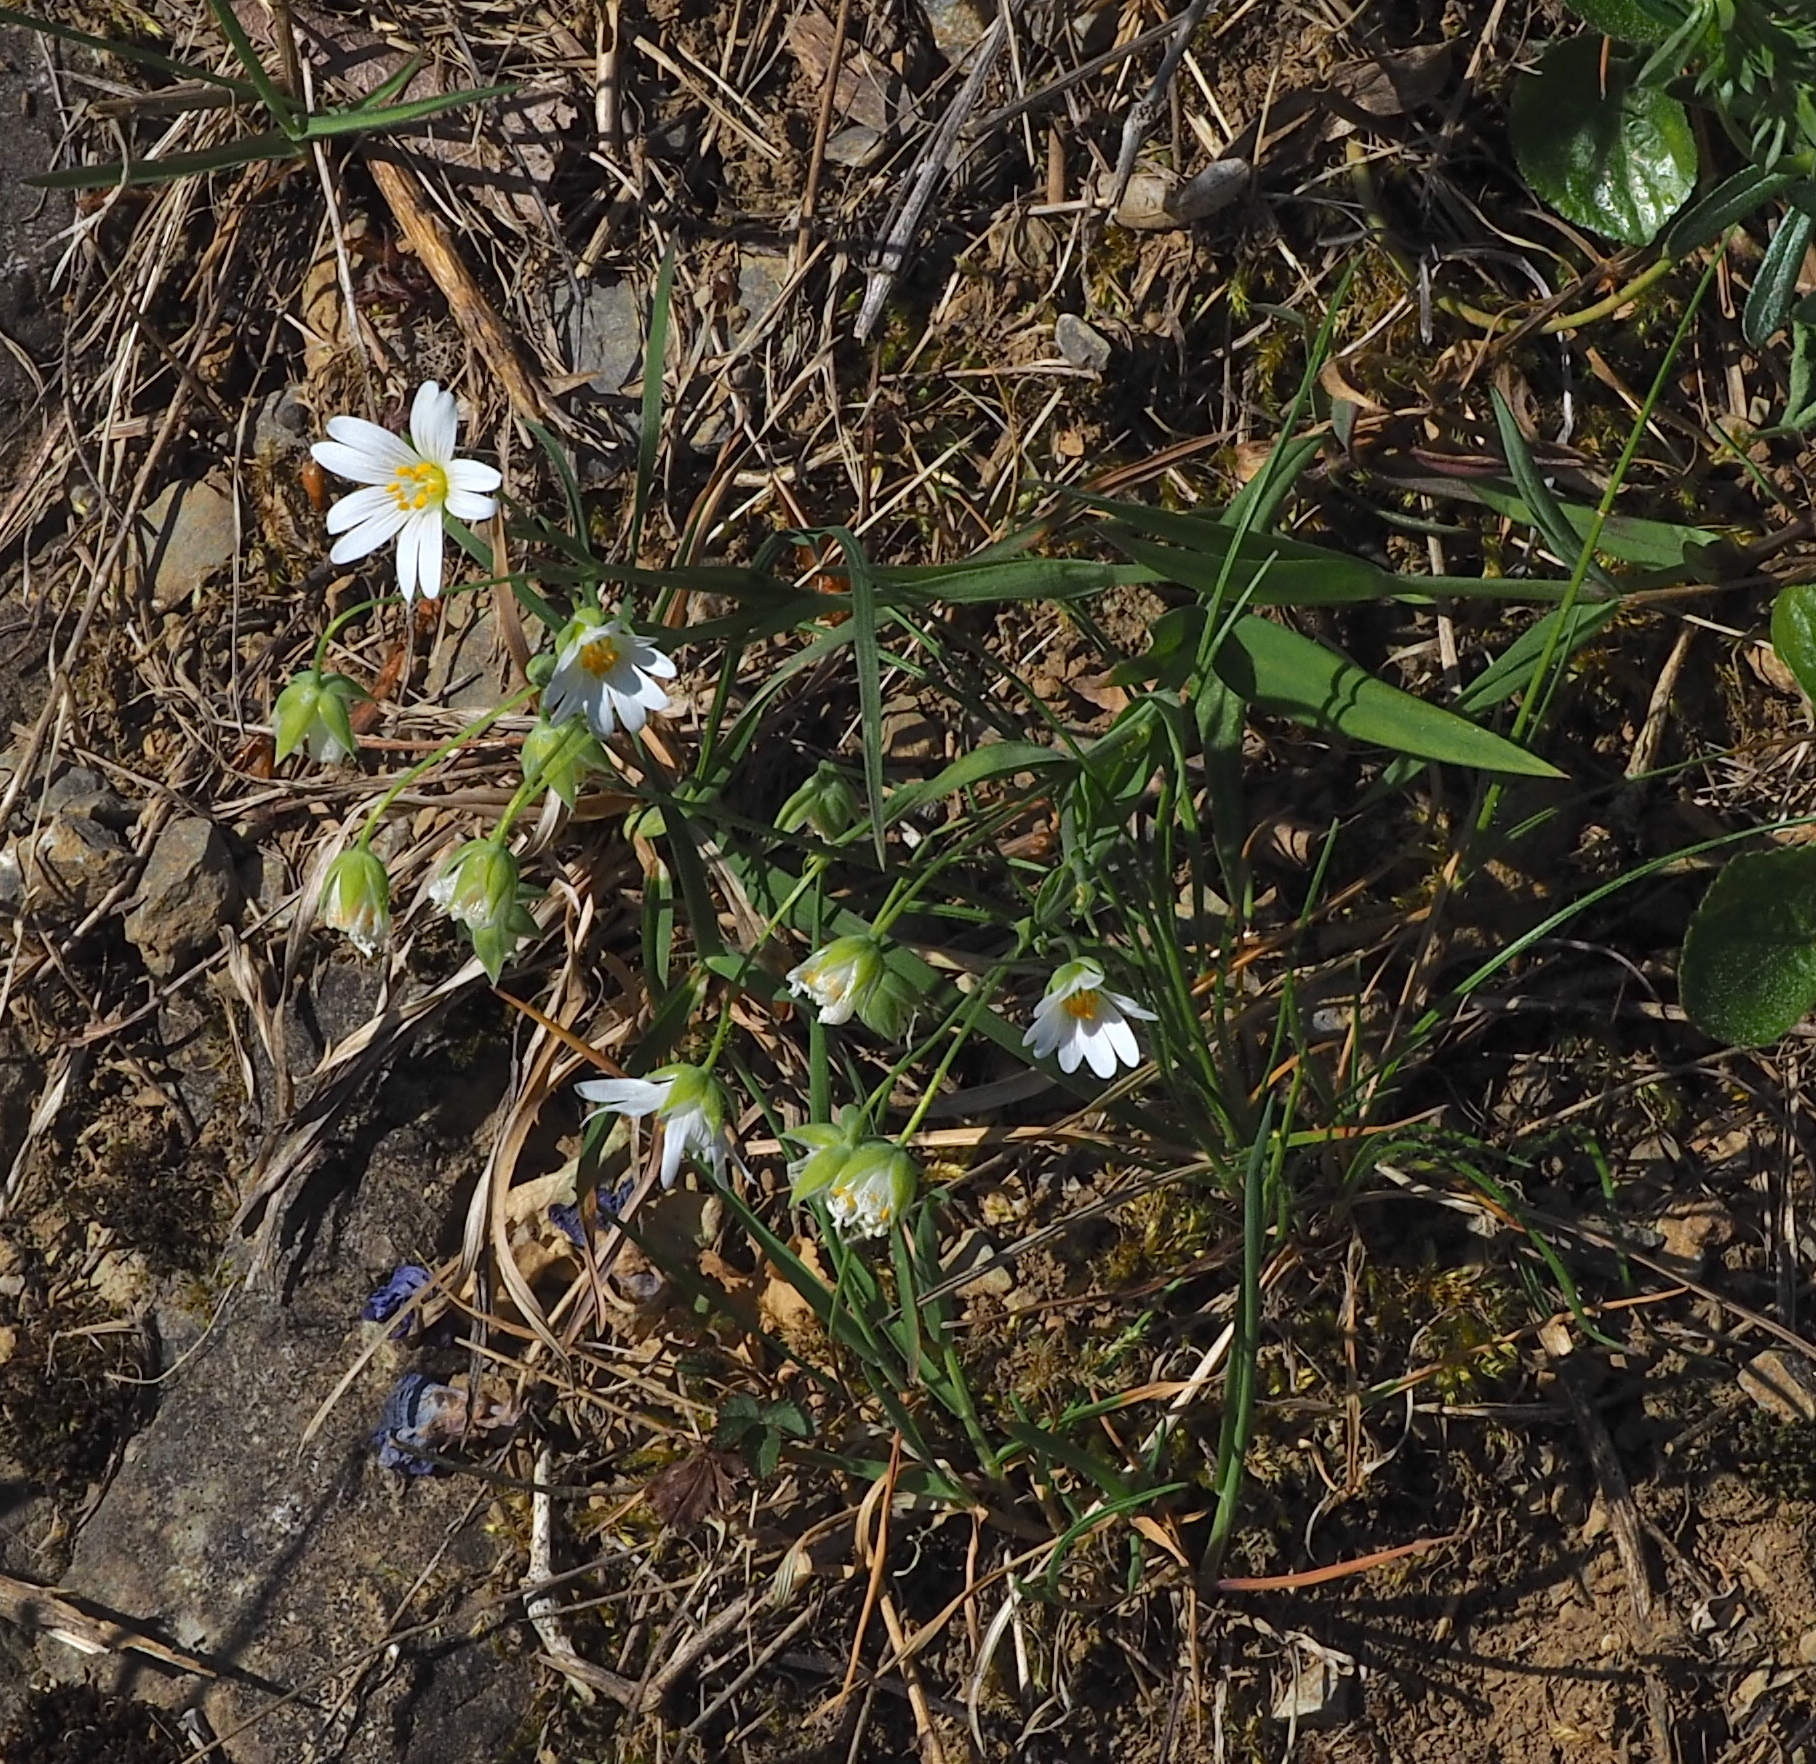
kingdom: Plantae
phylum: Tracheophyta
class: Magnoliopsida
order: Caryophyllales
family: Caryophyllaceae
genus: Rabelera
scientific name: Rabelera holostea
